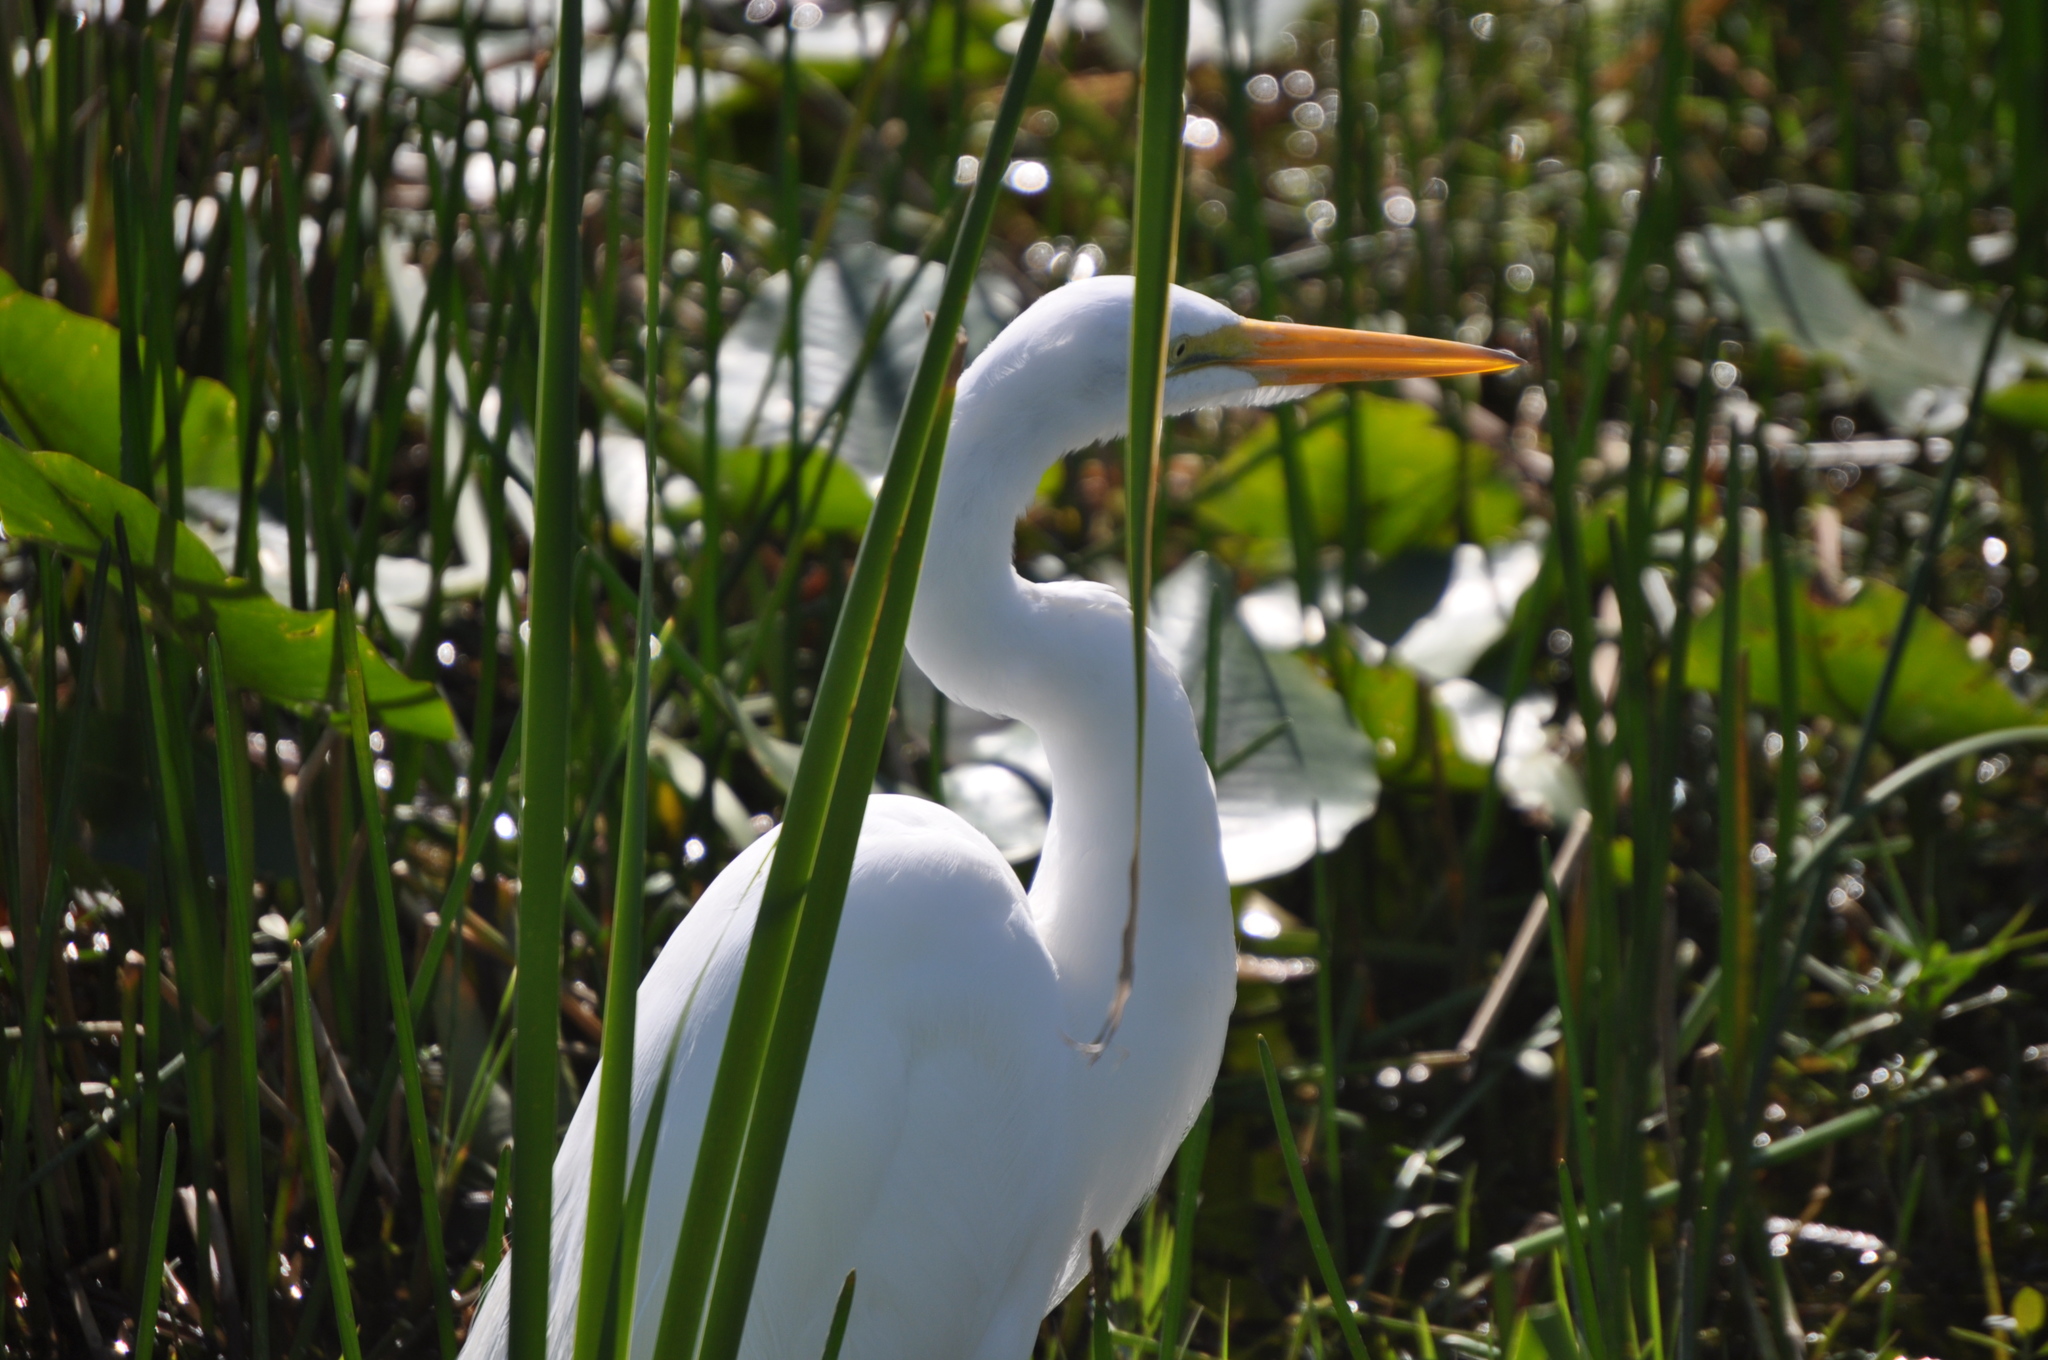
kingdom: Animalia
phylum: Chordata
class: Aves
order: Pelecaniformes
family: Ardeidae
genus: Ardea
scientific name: Ardea alba
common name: Great egret
